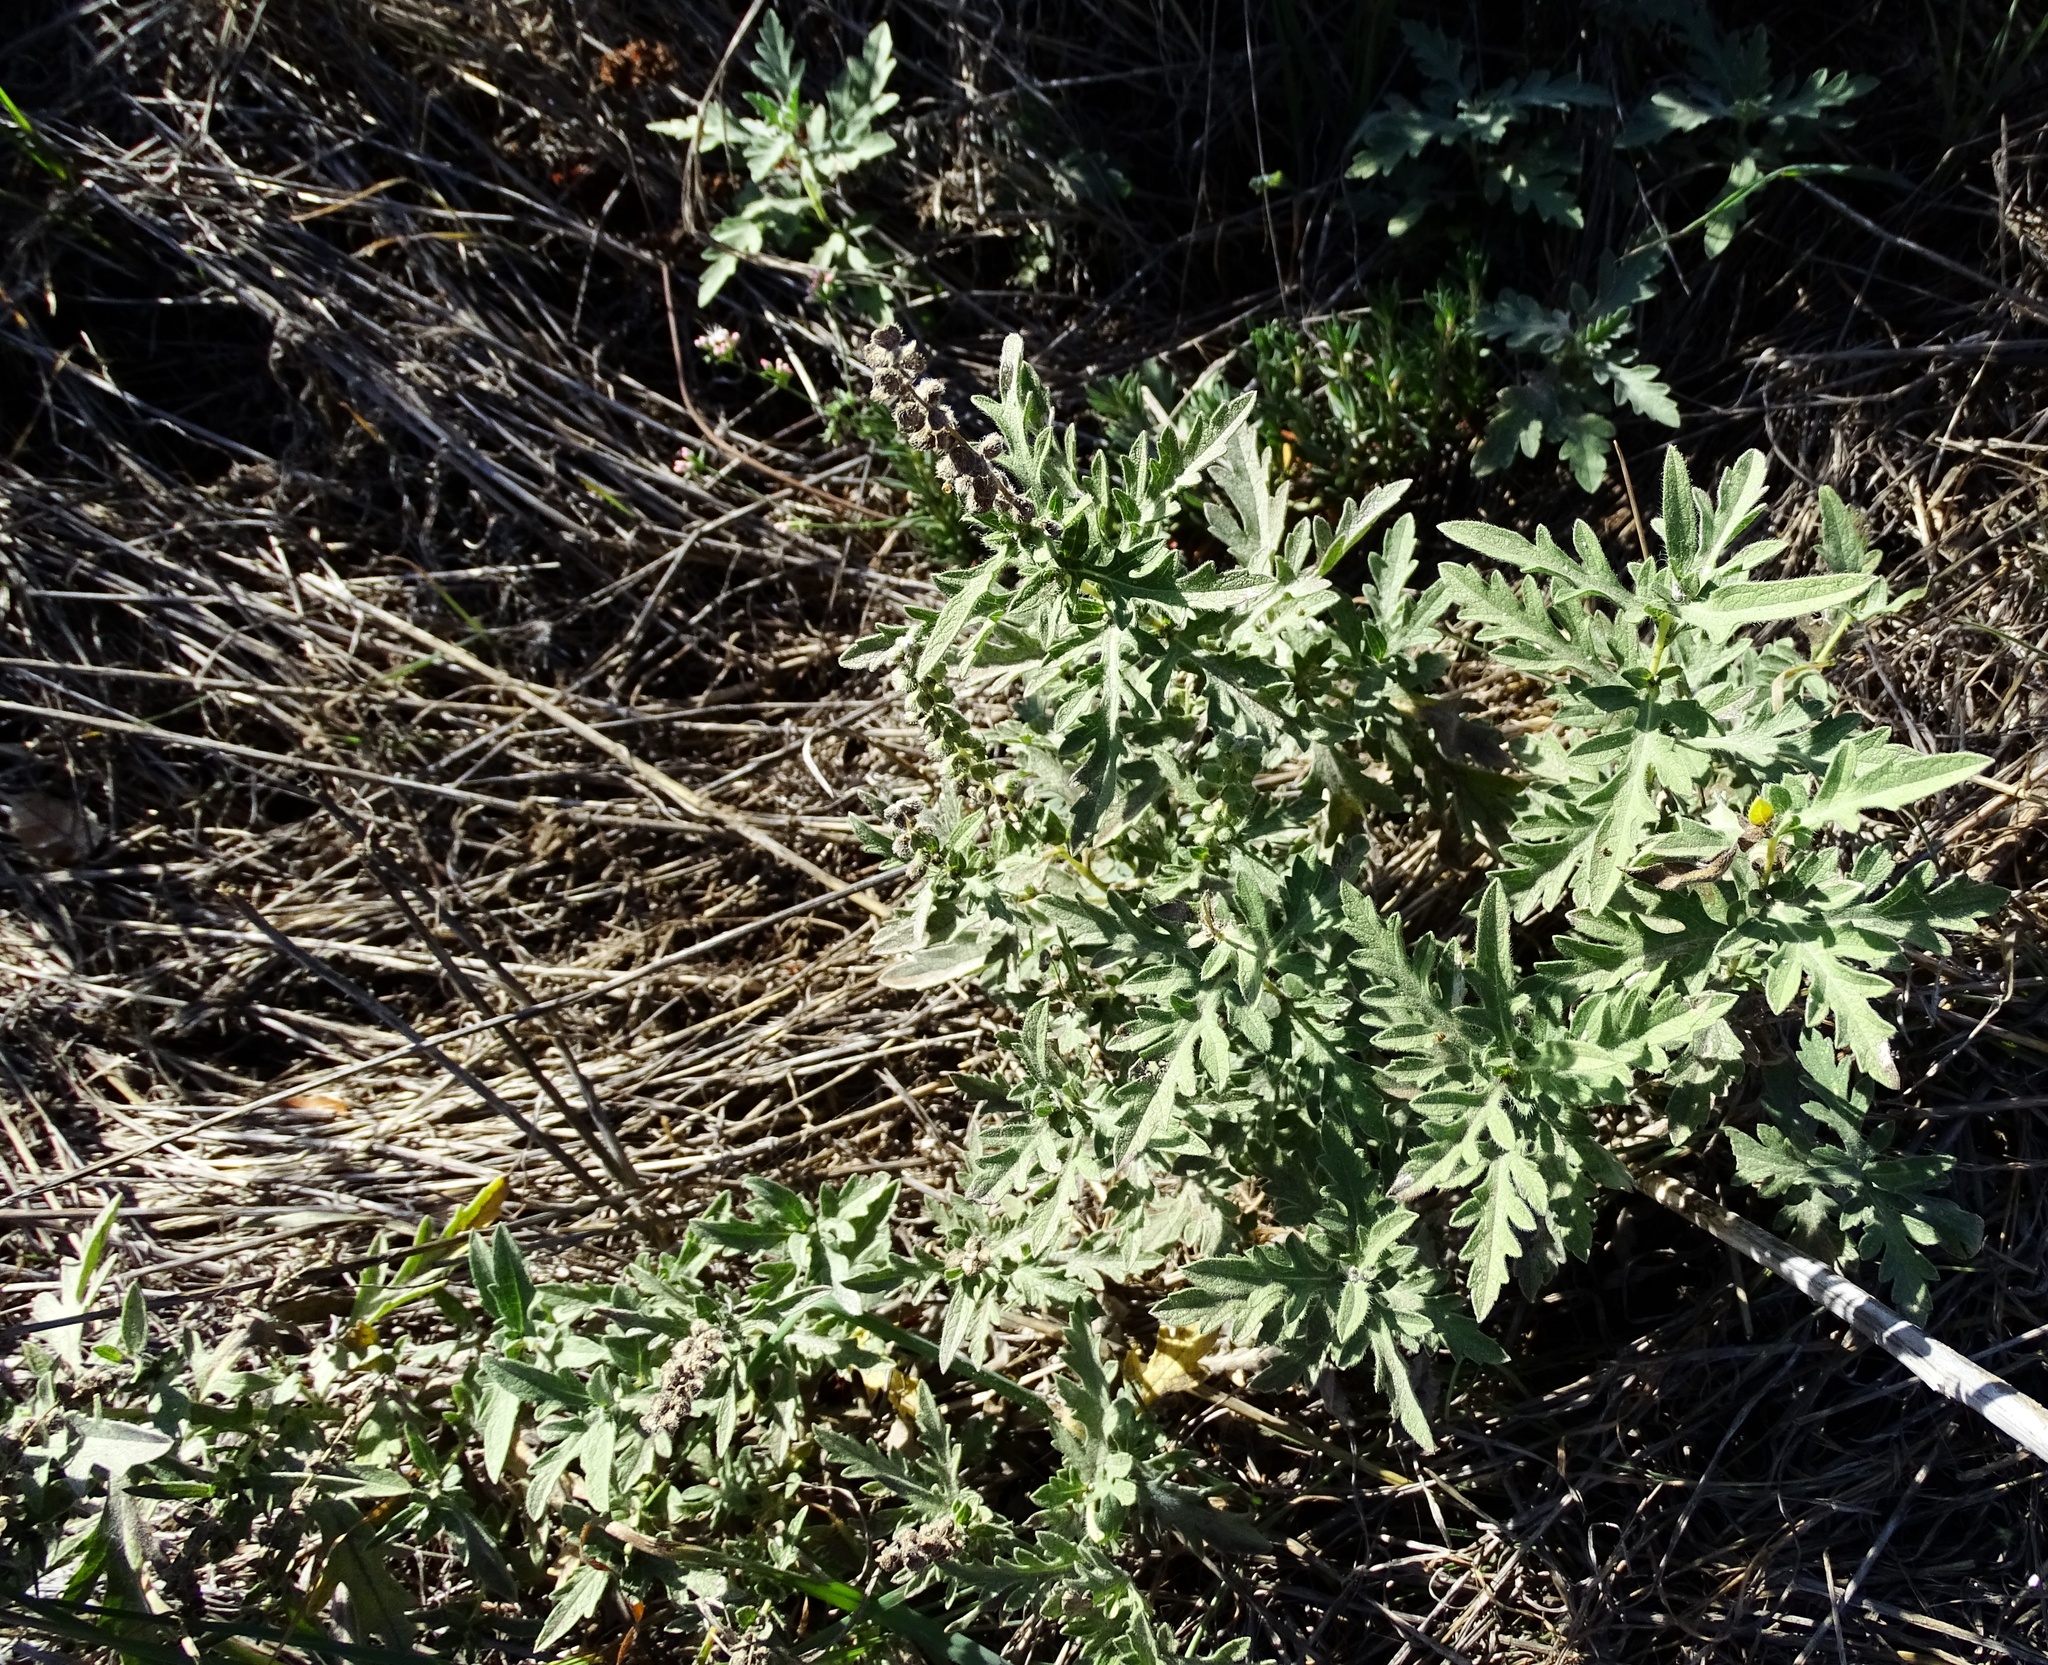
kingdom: Plantae
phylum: Tracheophyta
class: Magnoliopsida
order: Asterales
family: Asteraceae
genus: Ambrosia
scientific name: Ambrosia psilostachya
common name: Perennial ragweed
